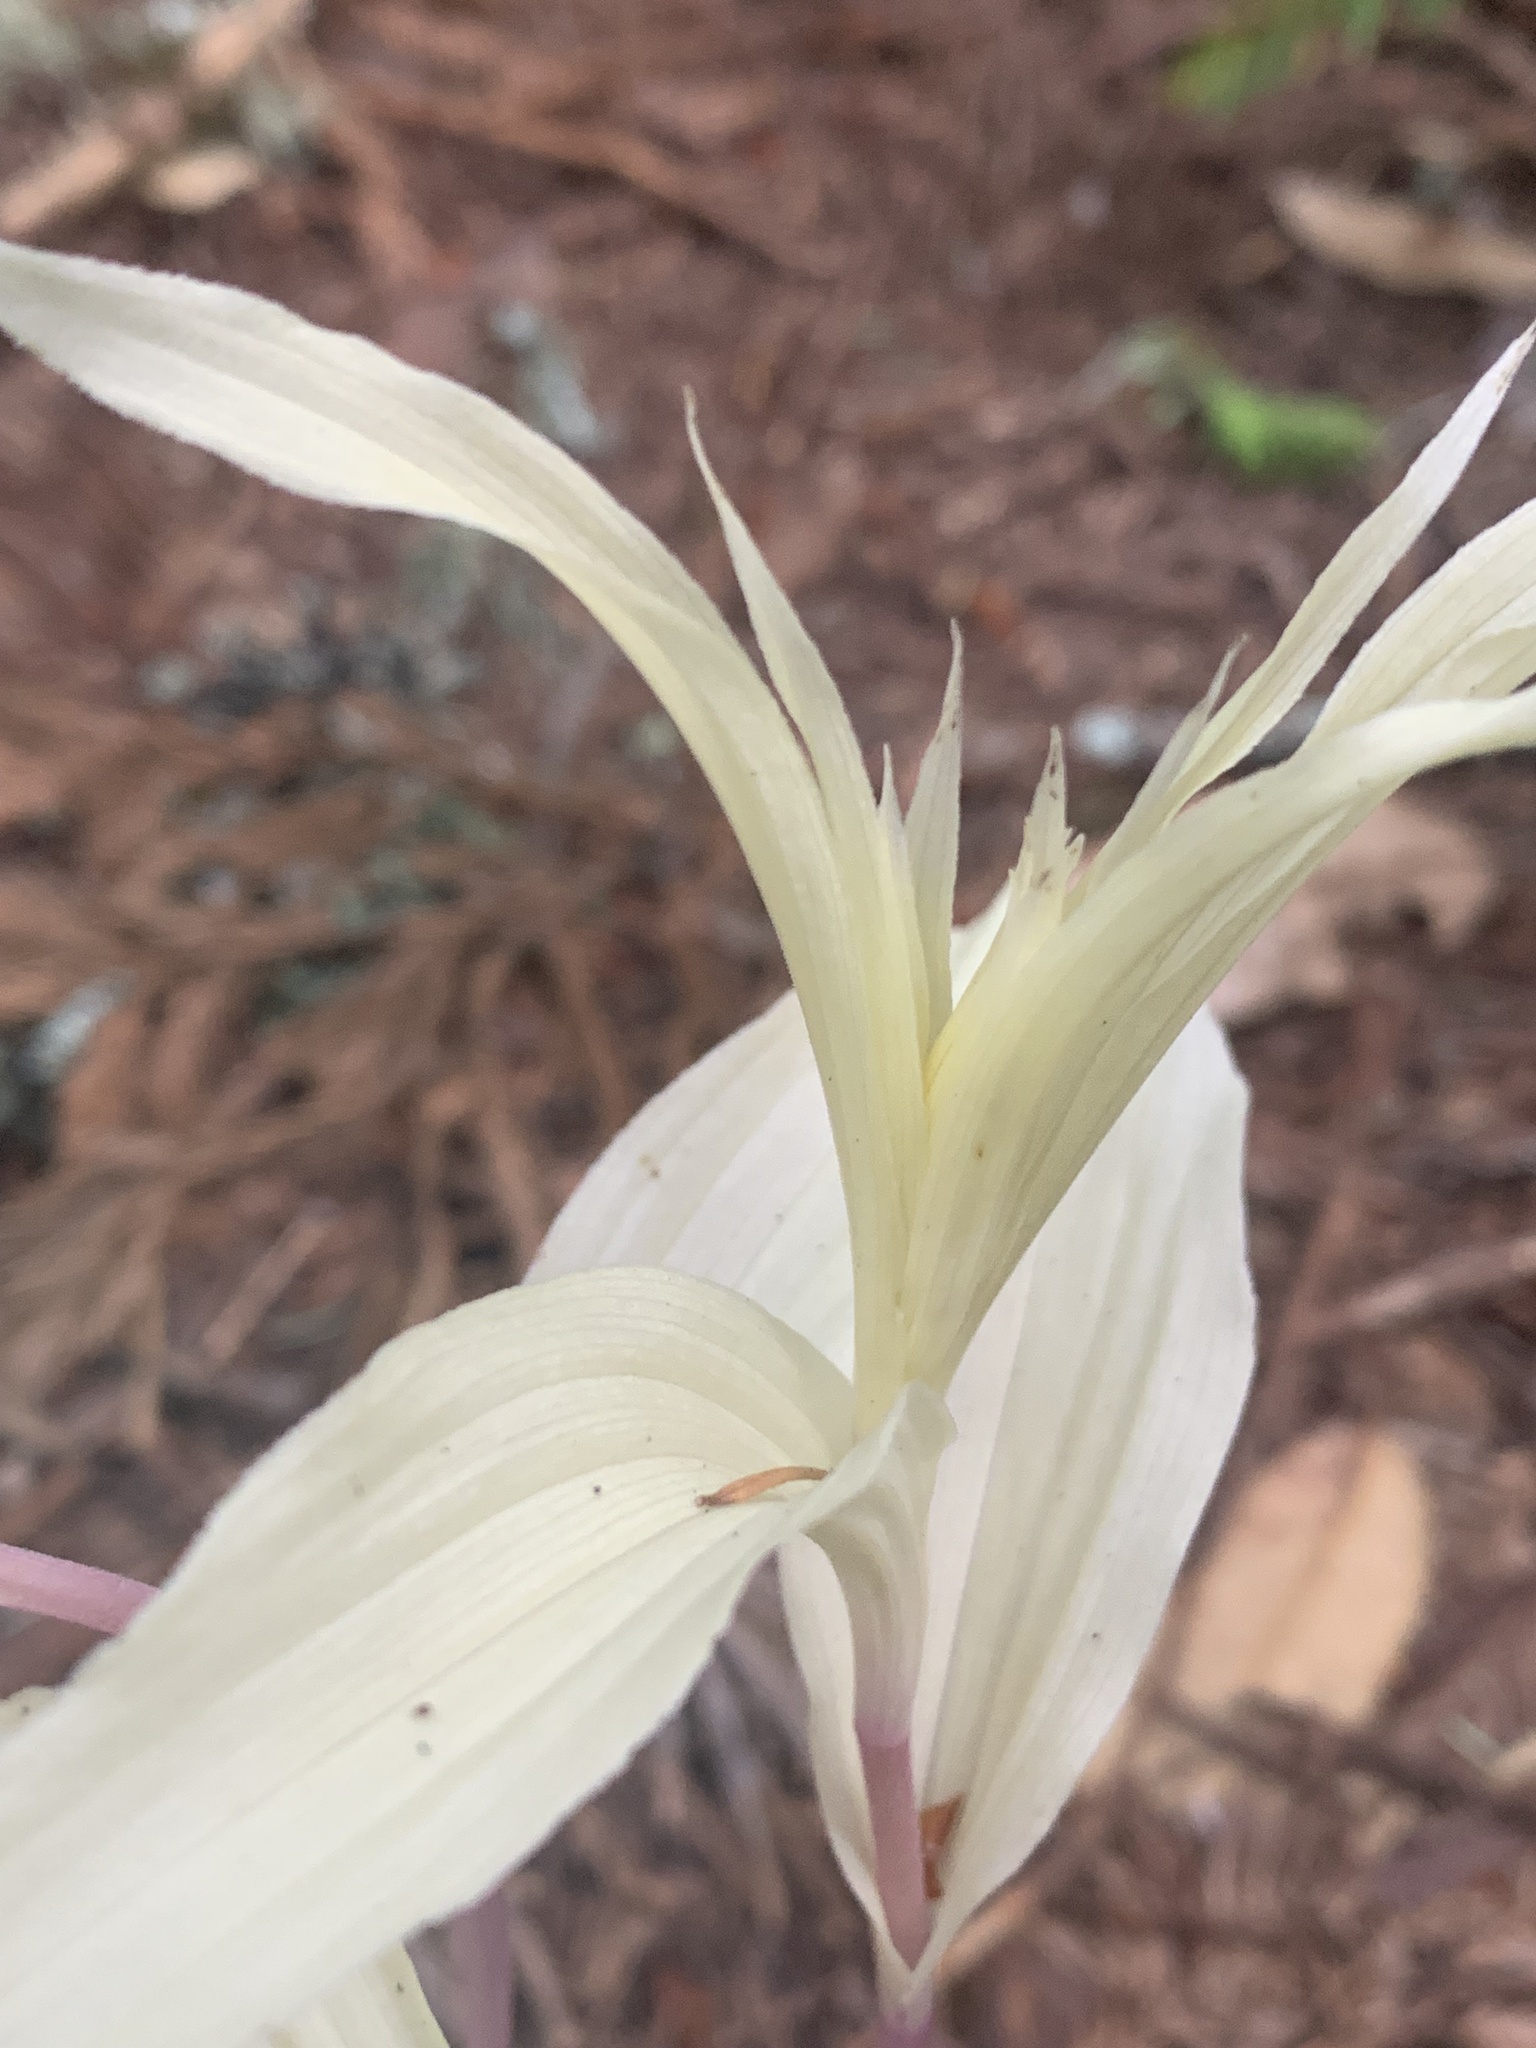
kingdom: Plantae
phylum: Tracheophyta
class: Liliopsida
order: Asparagales
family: Orchidaceae
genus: Epipactis
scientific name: Epipactis helleborine
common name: Broad-leaved helleborine
